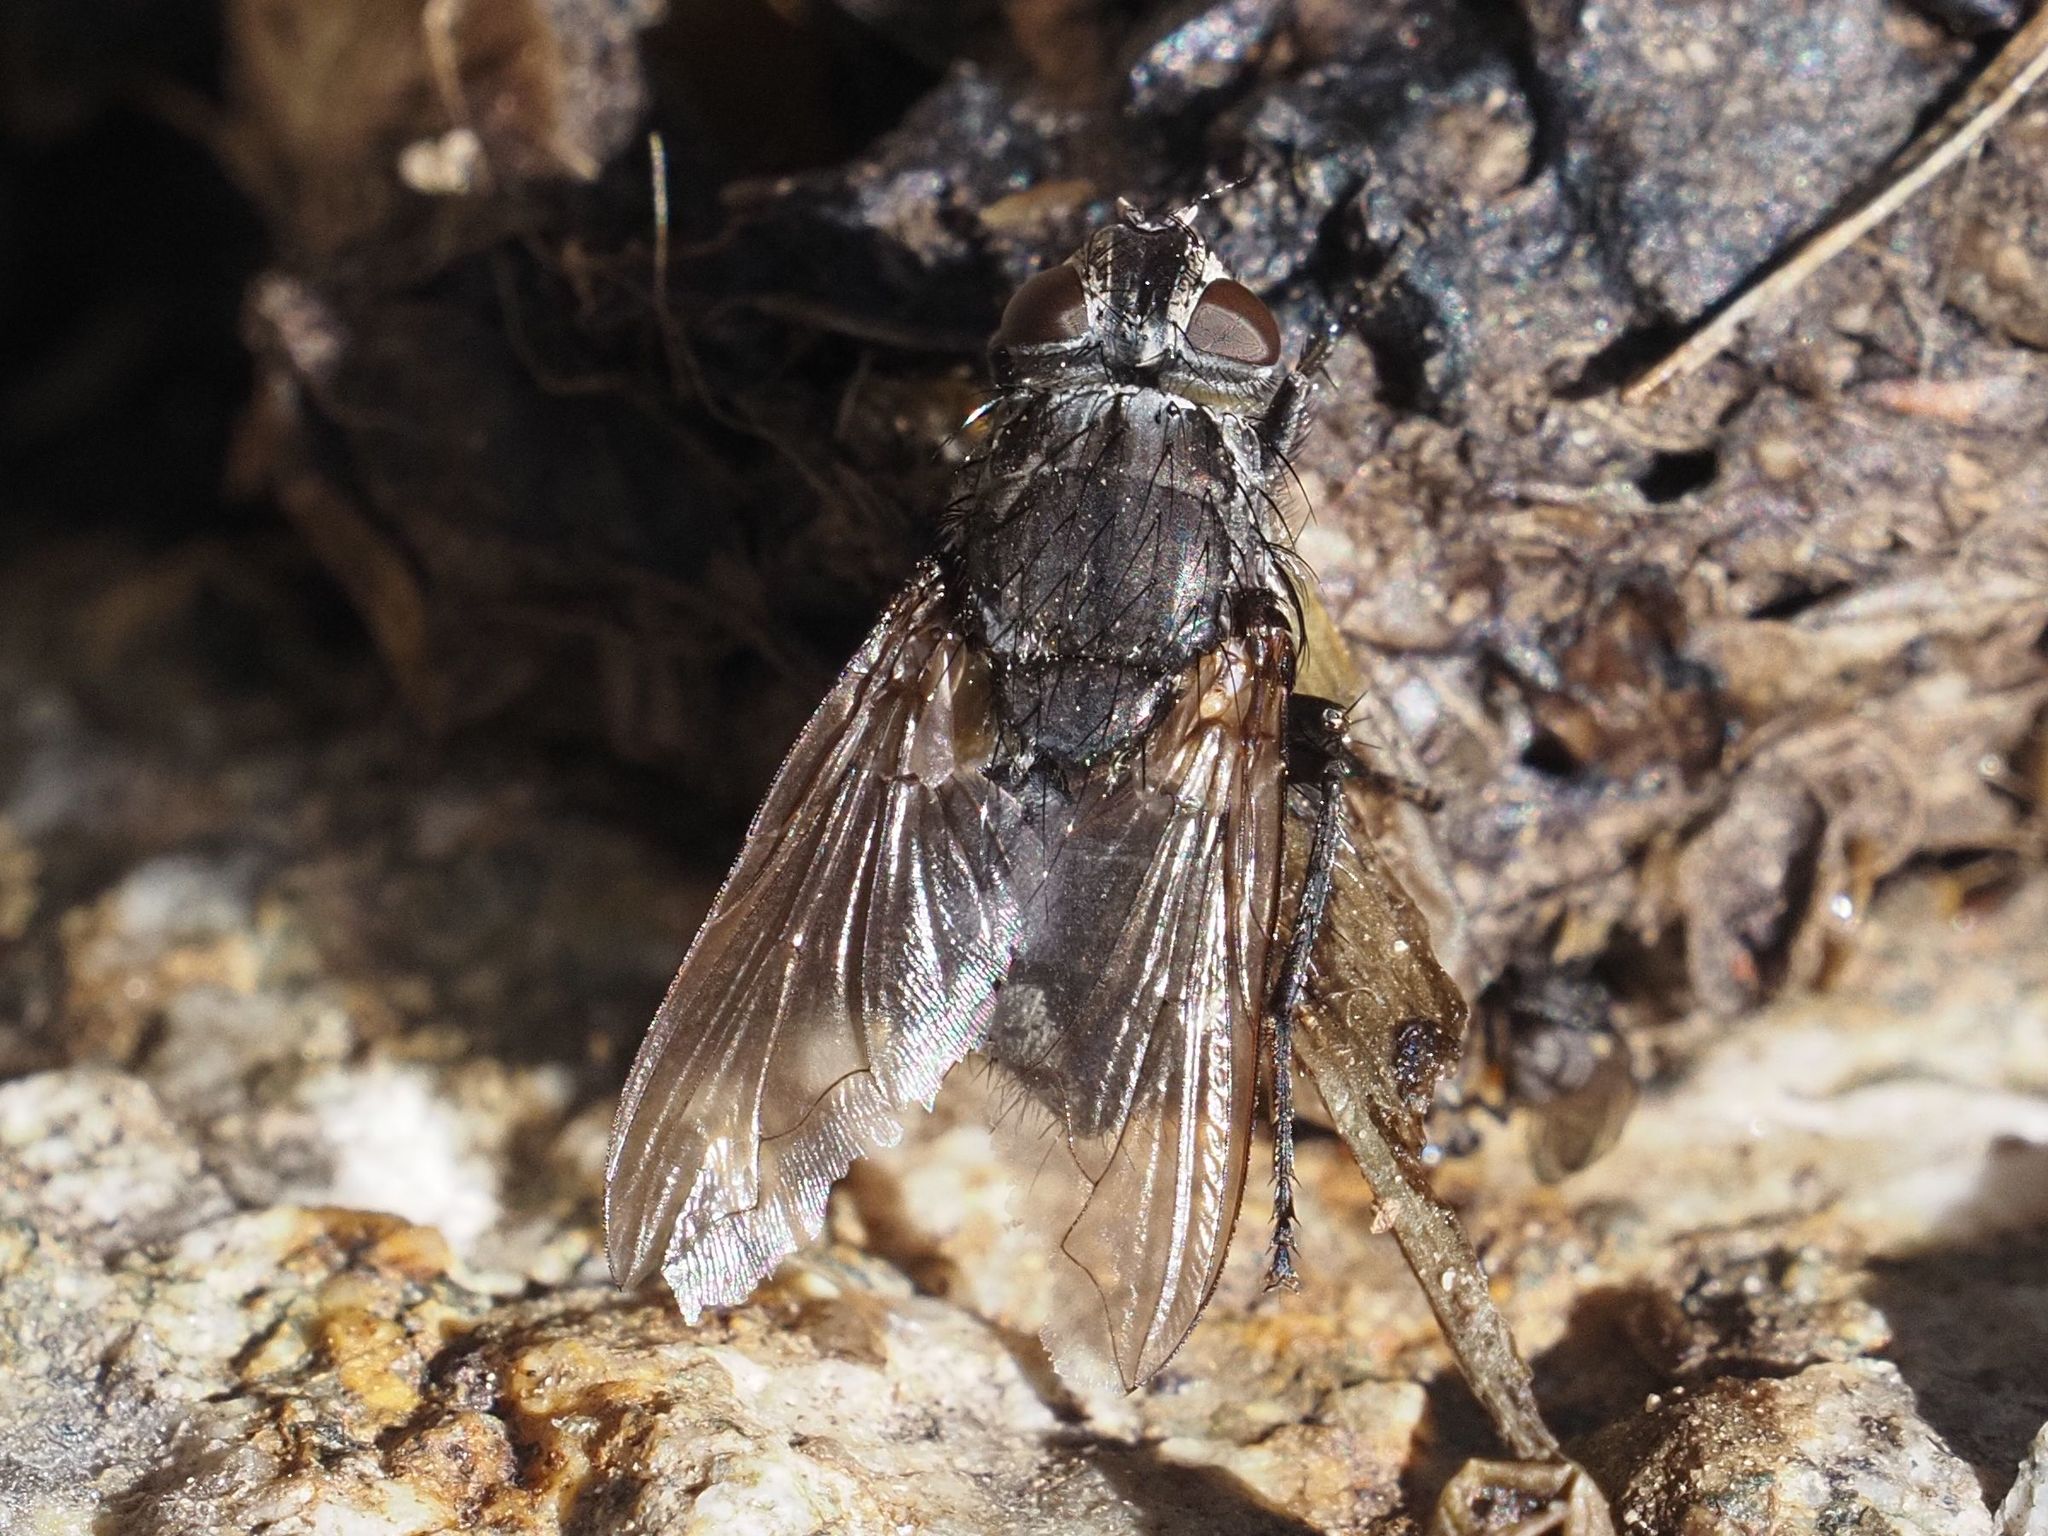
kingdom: Animalia
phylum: Arthropoda
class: Insecta
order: Diptera
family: Polleniidae
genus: Pollenia
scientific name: Pollenia vagabunda
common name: Vagabund cluster fly
